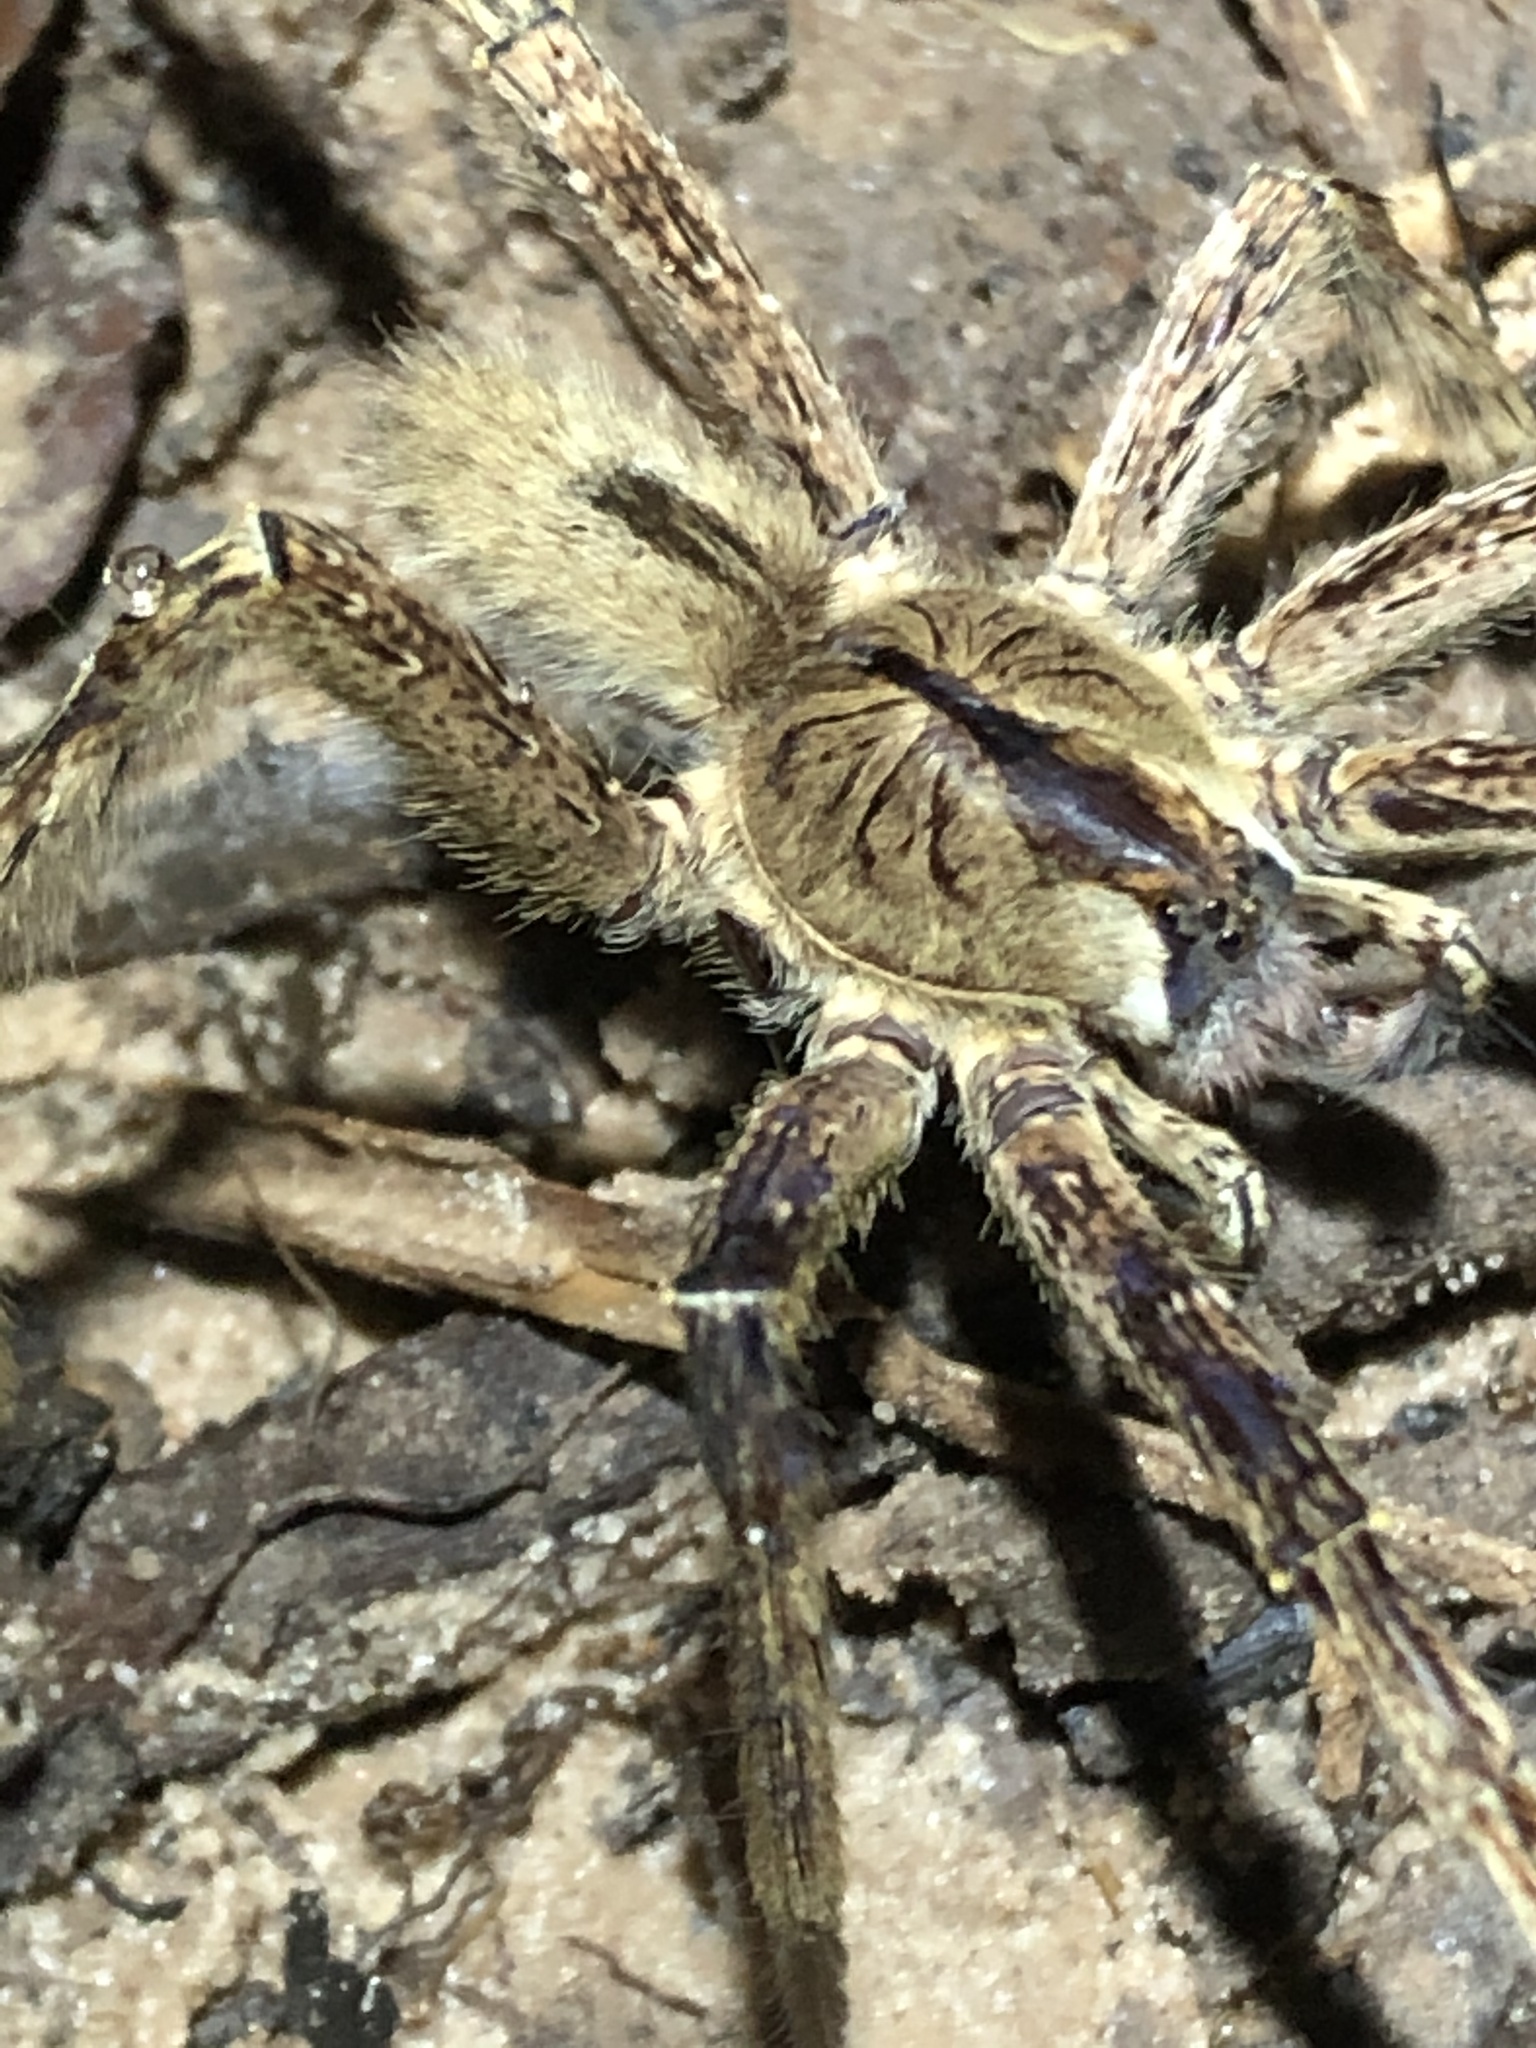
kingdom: Animalia
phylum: Arthropoda
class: Arachnida
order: Araneae
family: Ctenidae
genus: Phoneutria
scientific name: Phoneutria boliviensis
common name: Wandering spiders
